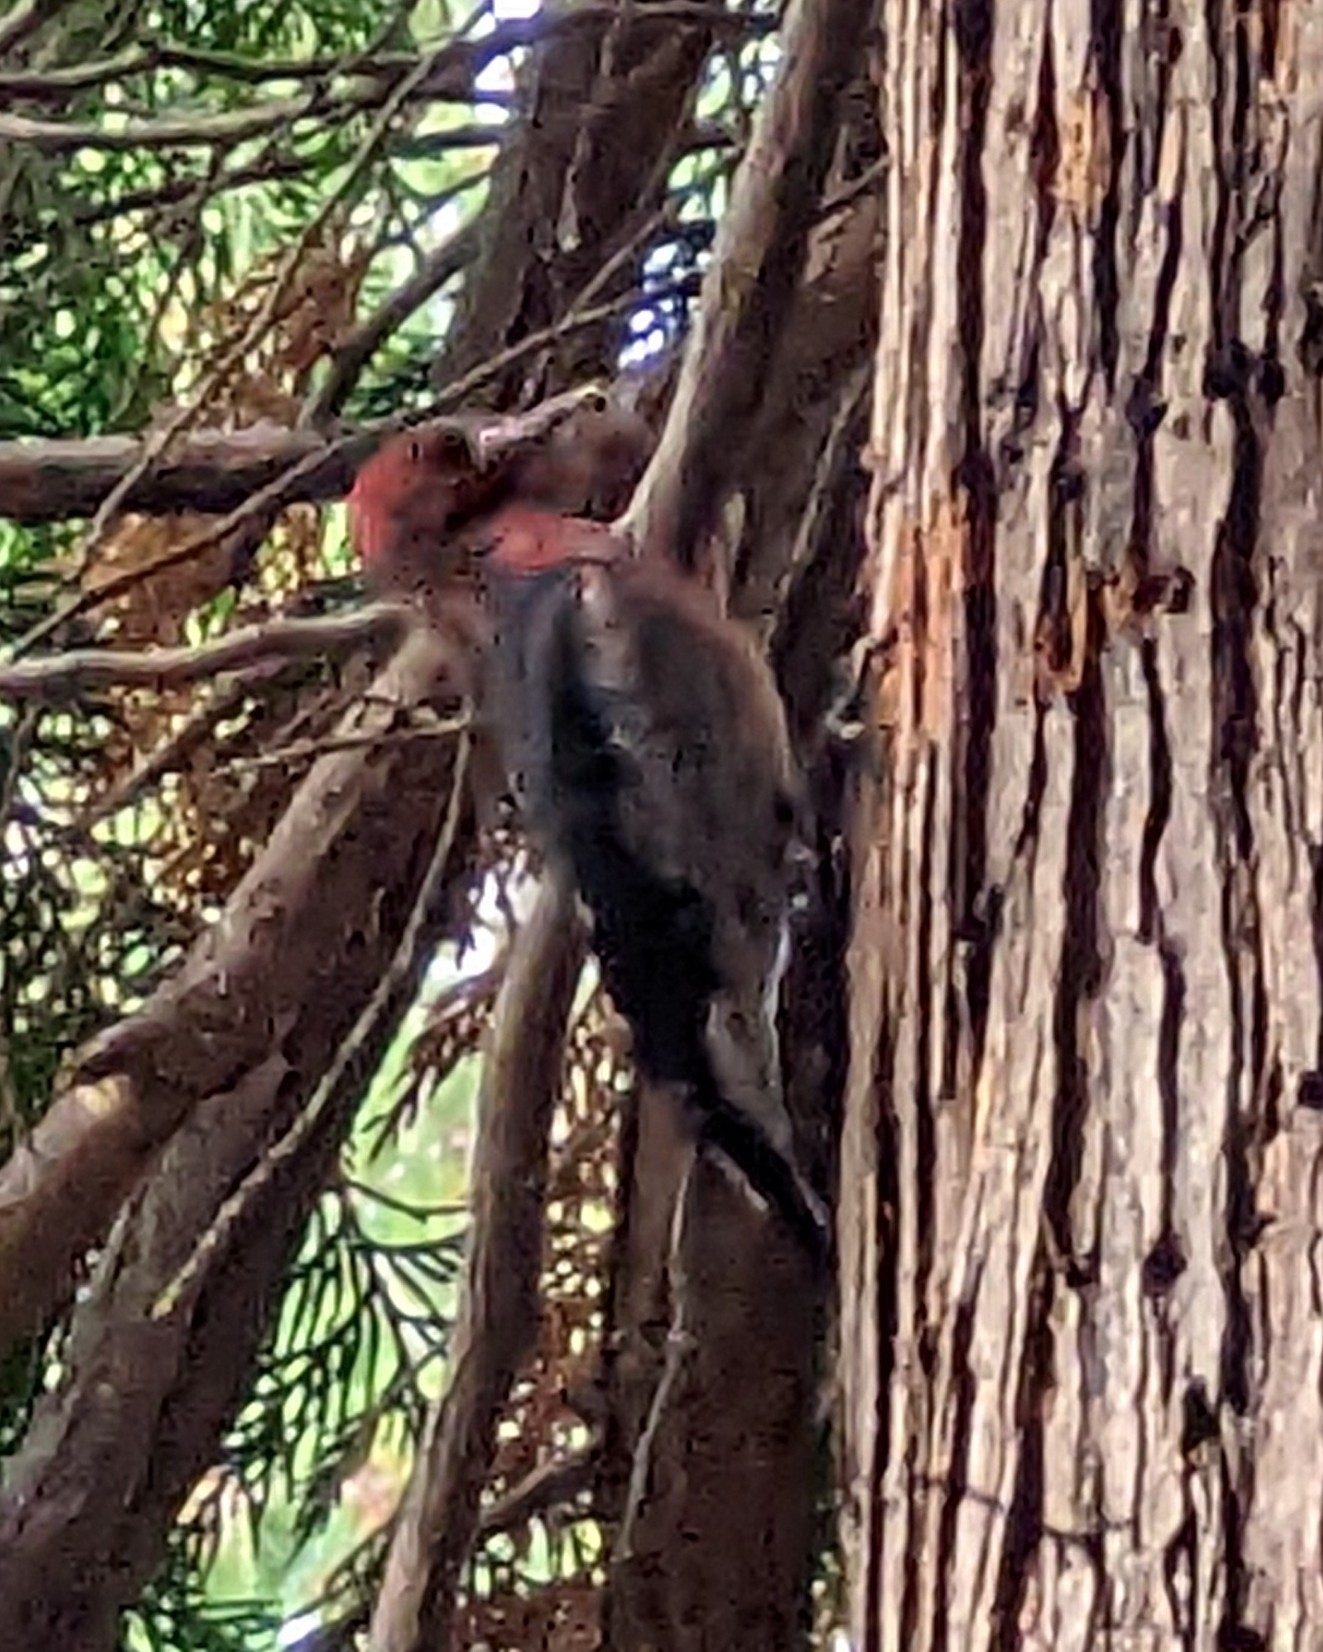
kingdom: Animalia
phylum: Chordata
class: Aves
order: Piciformes
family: Picidae
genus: Sphyrapicus
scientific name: Sphyrapicus ruber
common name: Red-breasted sapsucker
